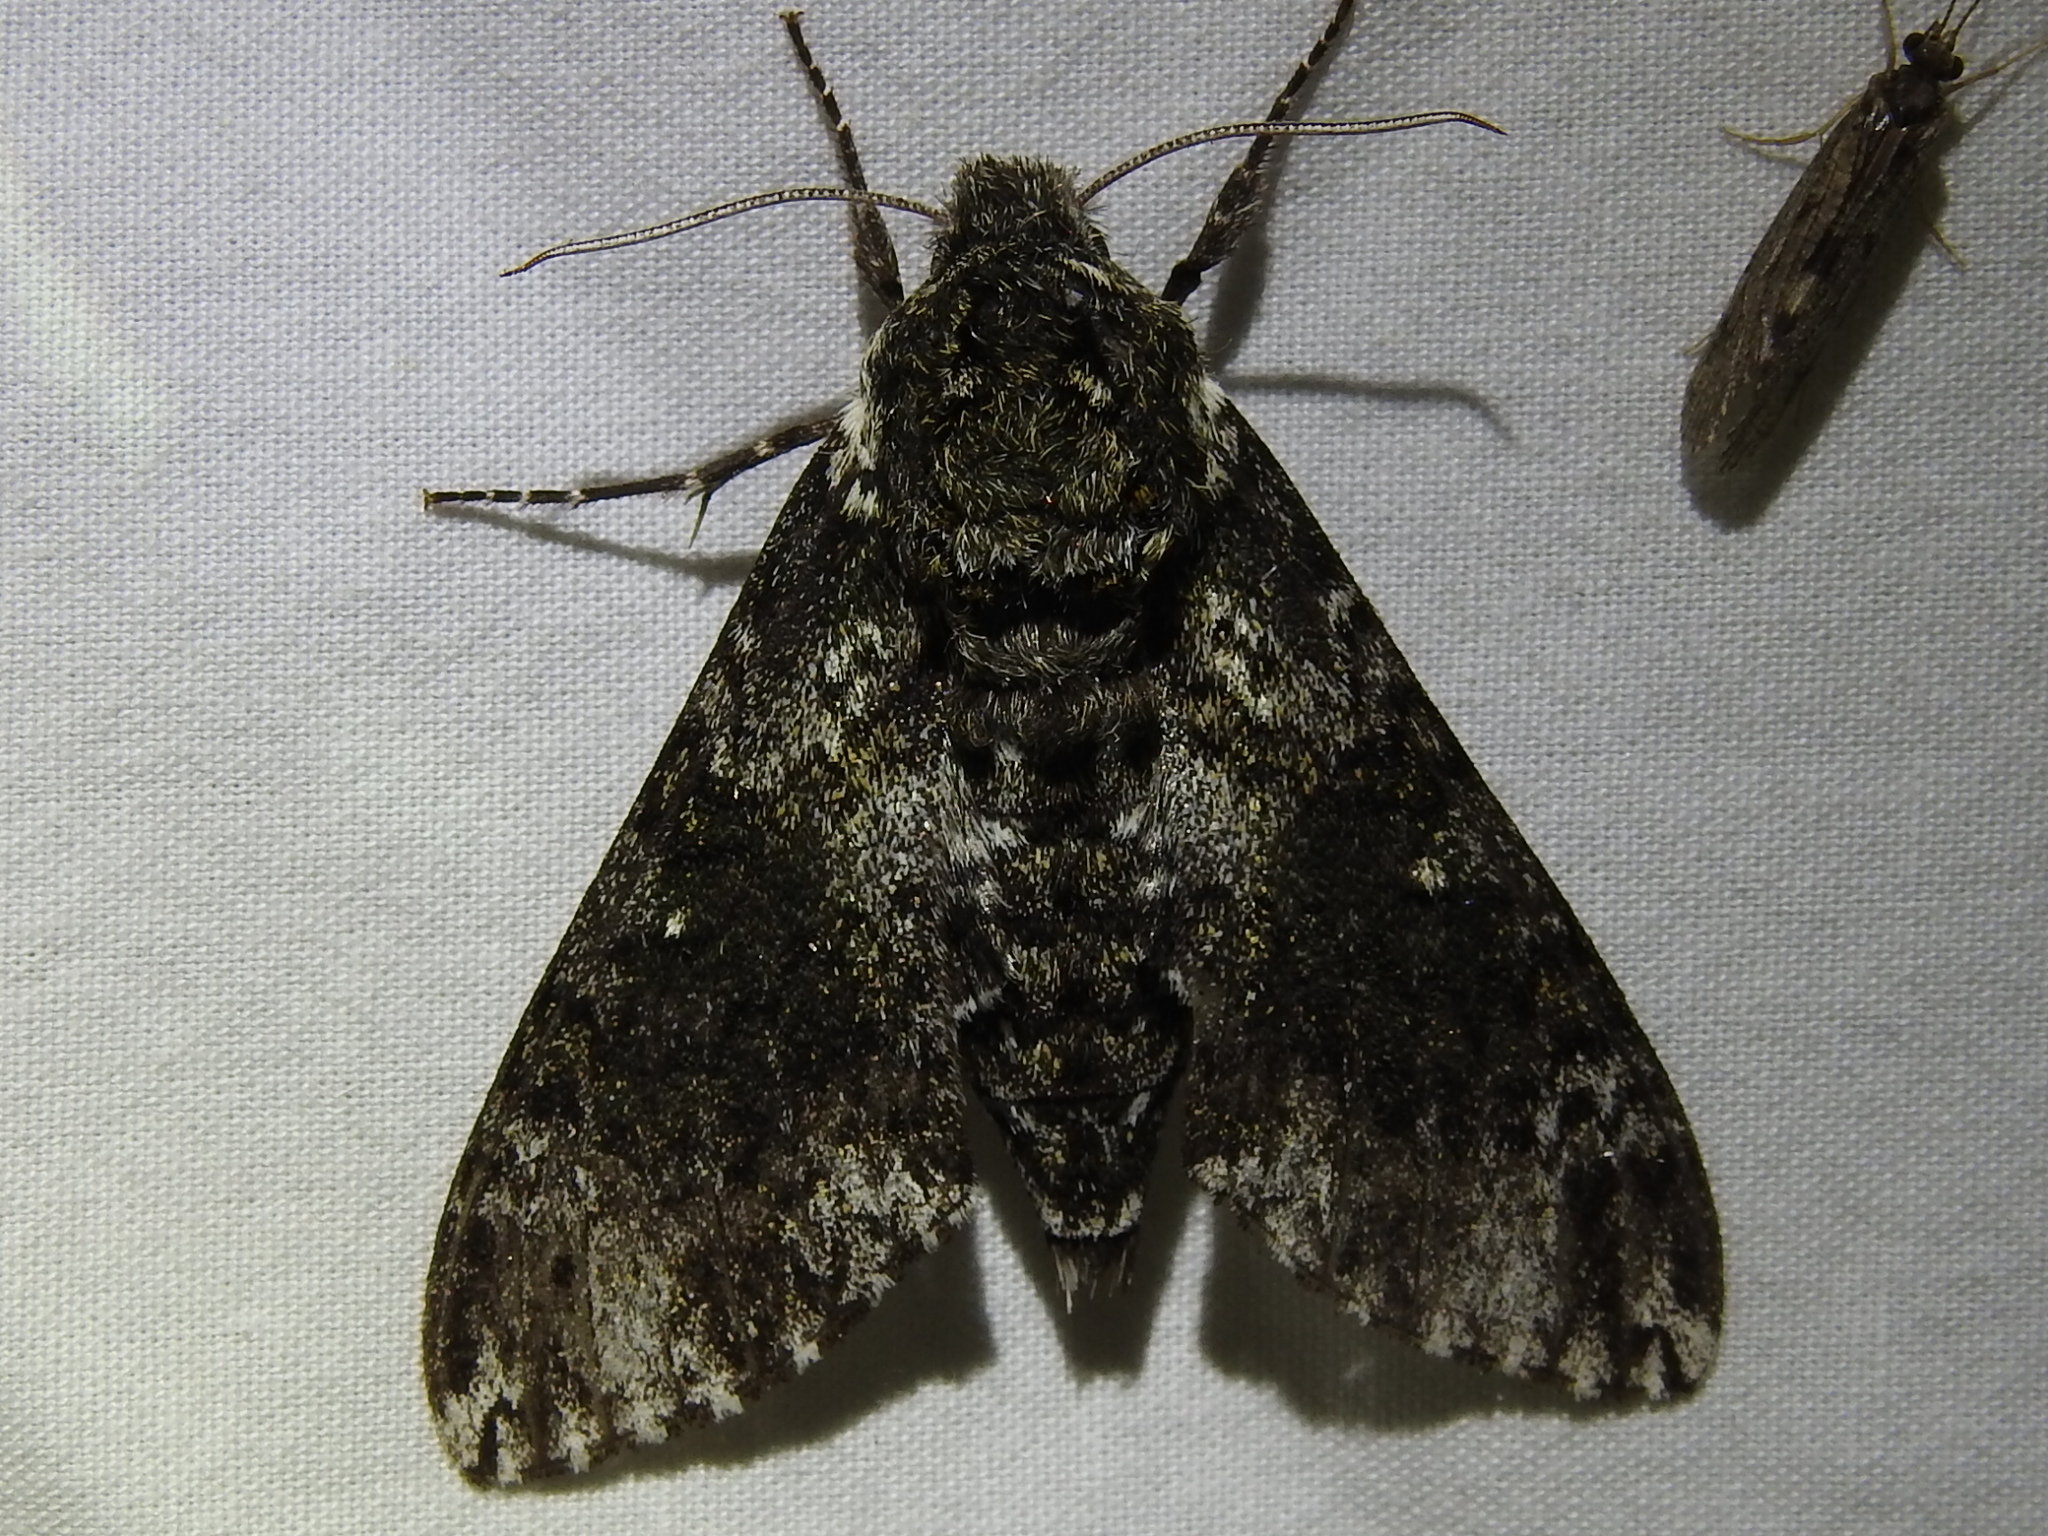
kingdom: Animalia
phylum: Arthropoda
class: Insecta
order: Lepidoptera
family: Sphingidae
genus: Dolba
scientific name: Dolba hyloeus
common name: Pawpaw sphinx
